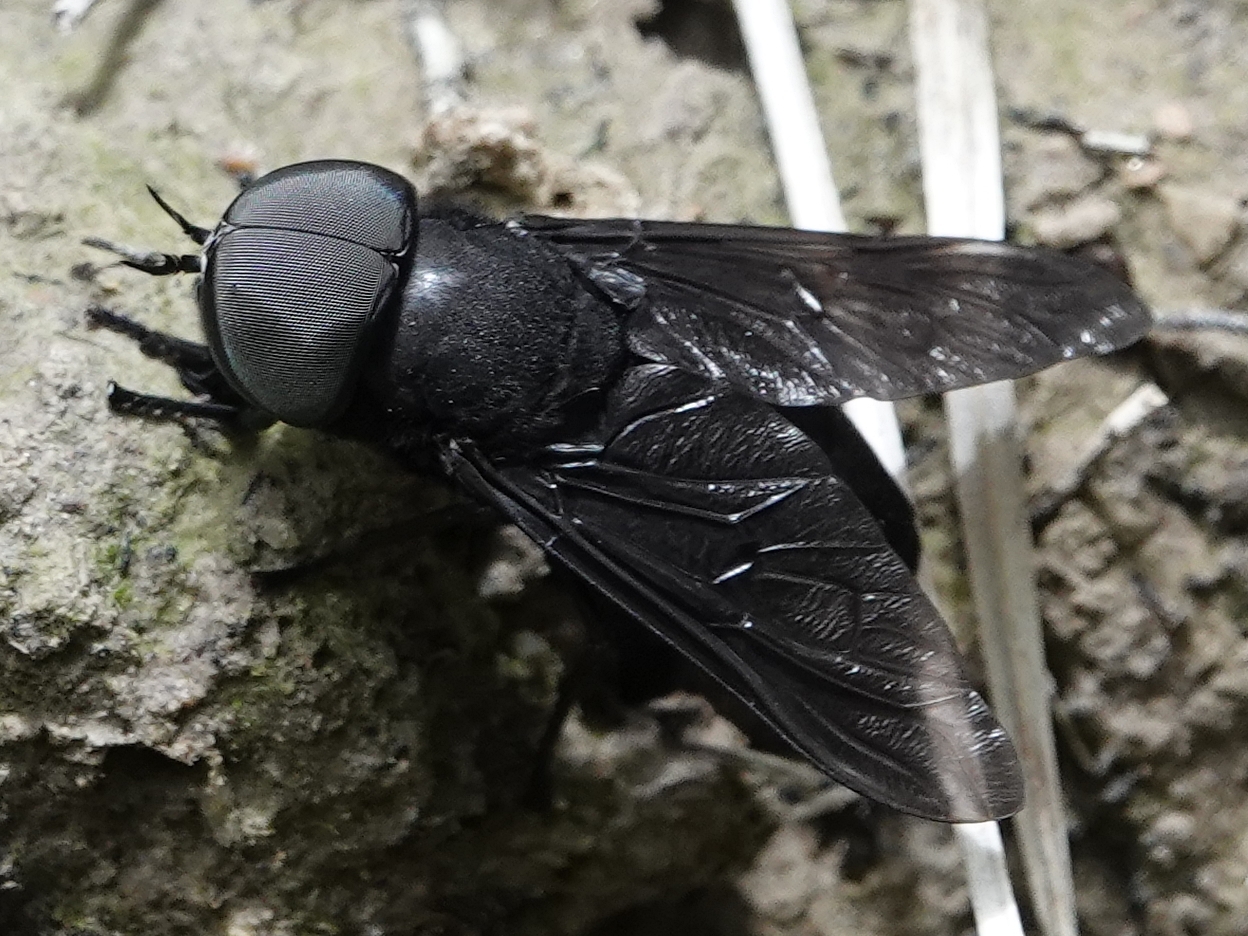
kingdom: Animalia
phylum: Arthropoda
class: Insecta
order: Diptera
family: Tabanidae
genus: Tabanus
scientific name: Tabanus atratus
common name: Black horse fly
